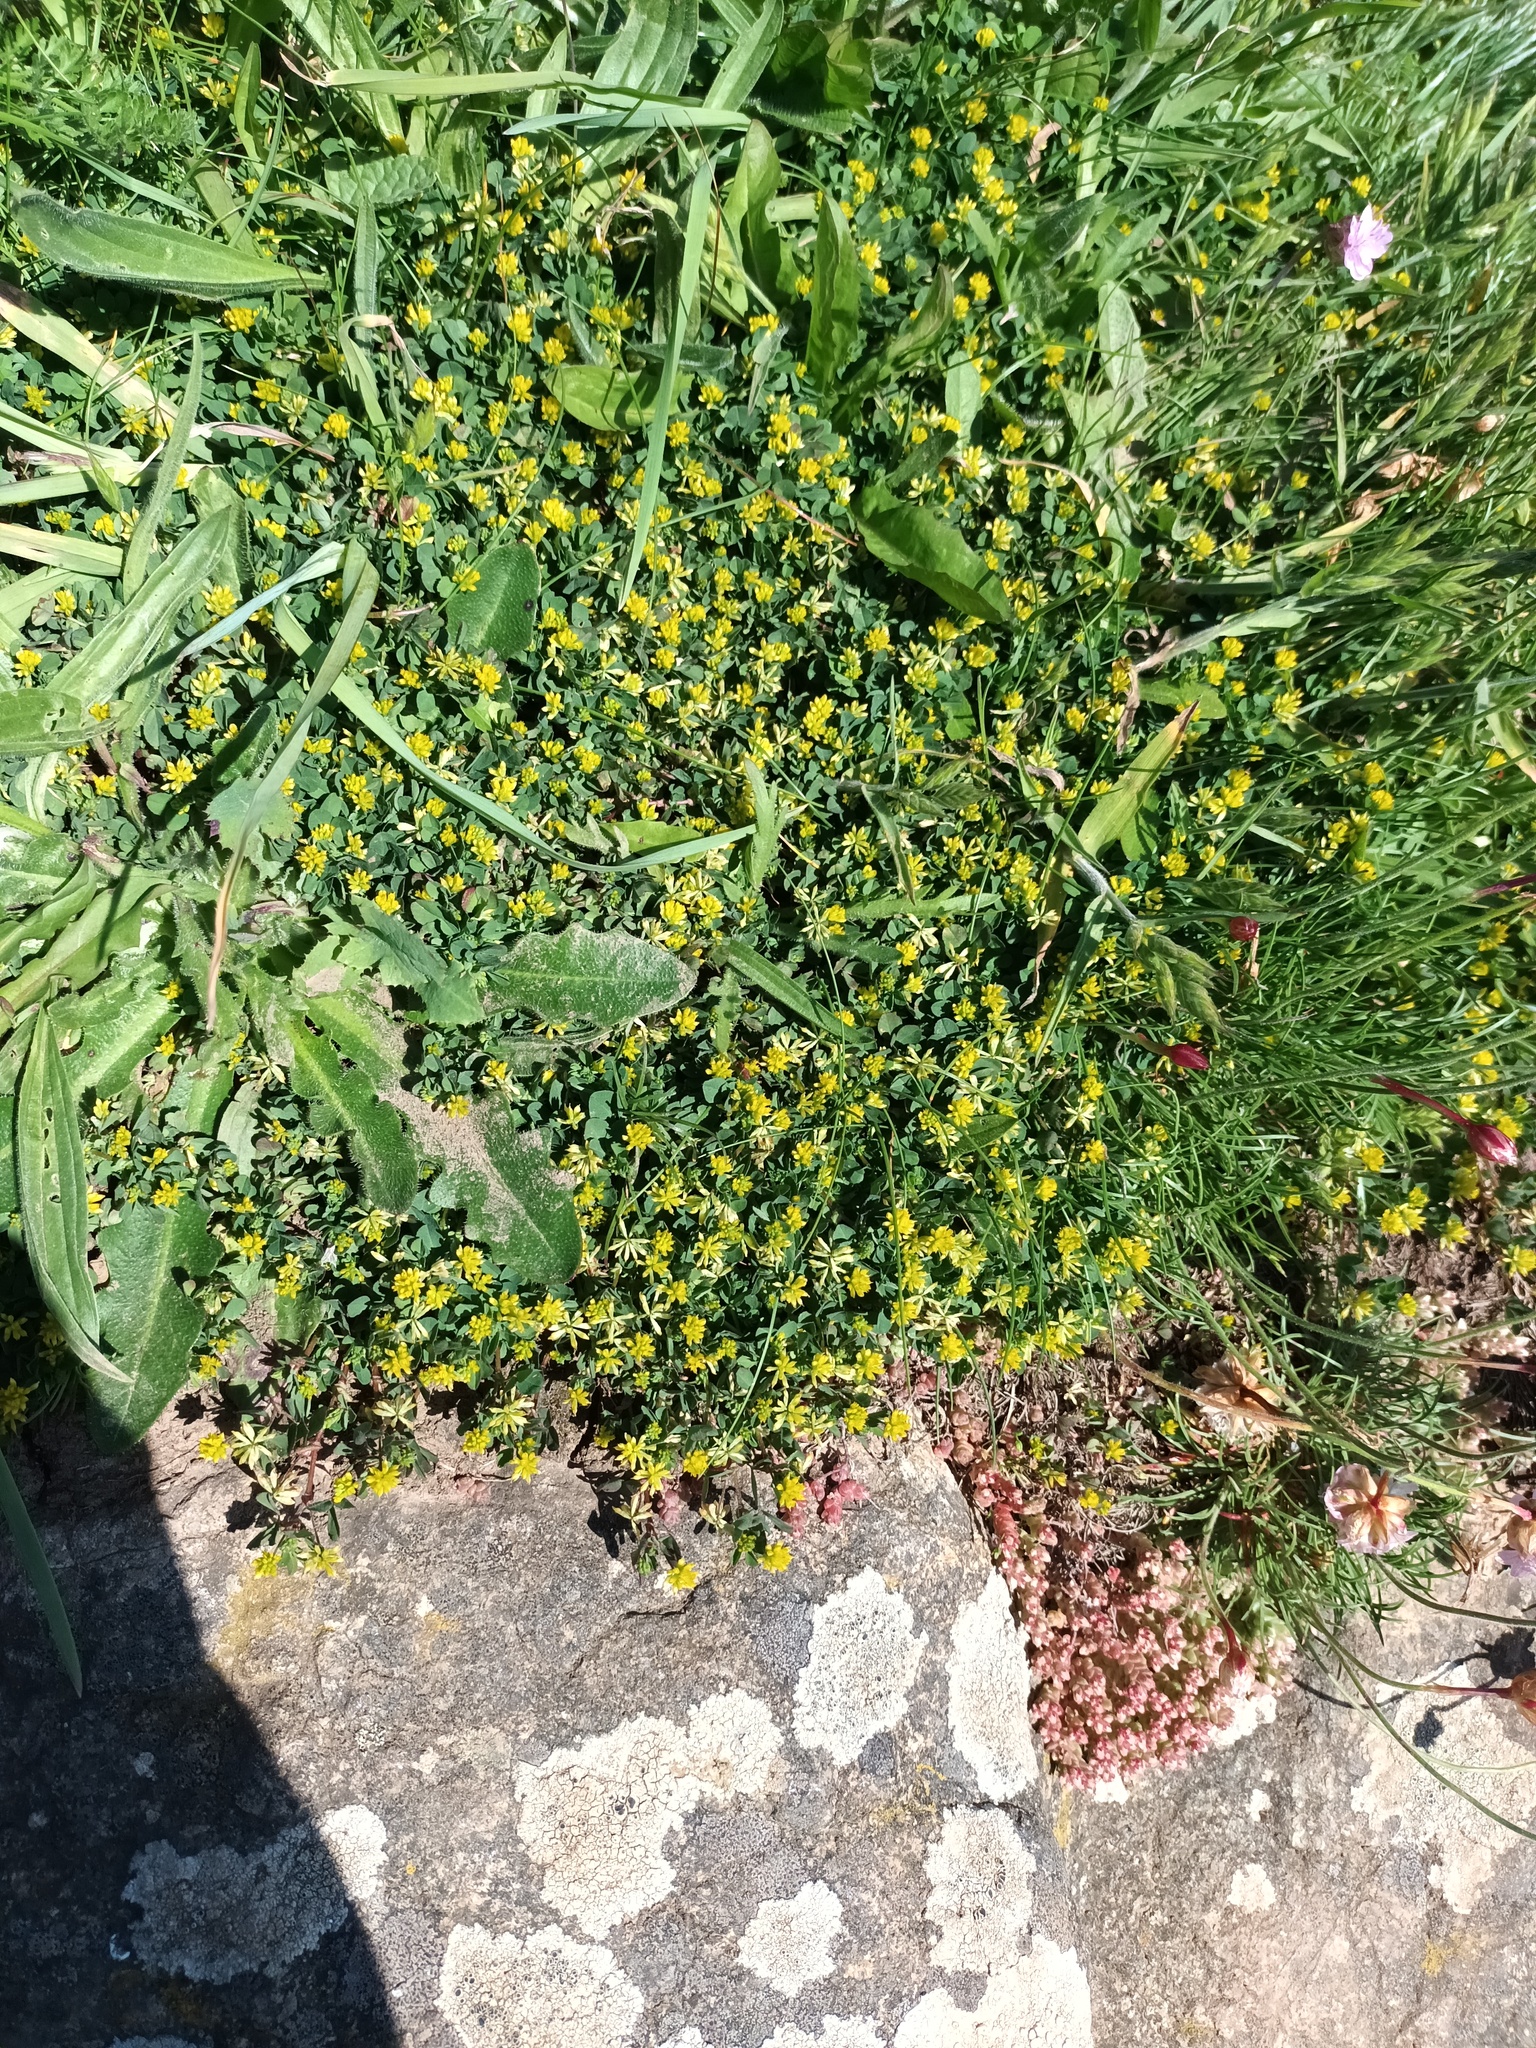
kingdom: Plantae
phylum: Tracheophyta
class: Magnoliopsida
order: Fabales
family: Fabaceae
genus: Trifolium
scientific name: Trifolium dubium
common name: Suckling clover
